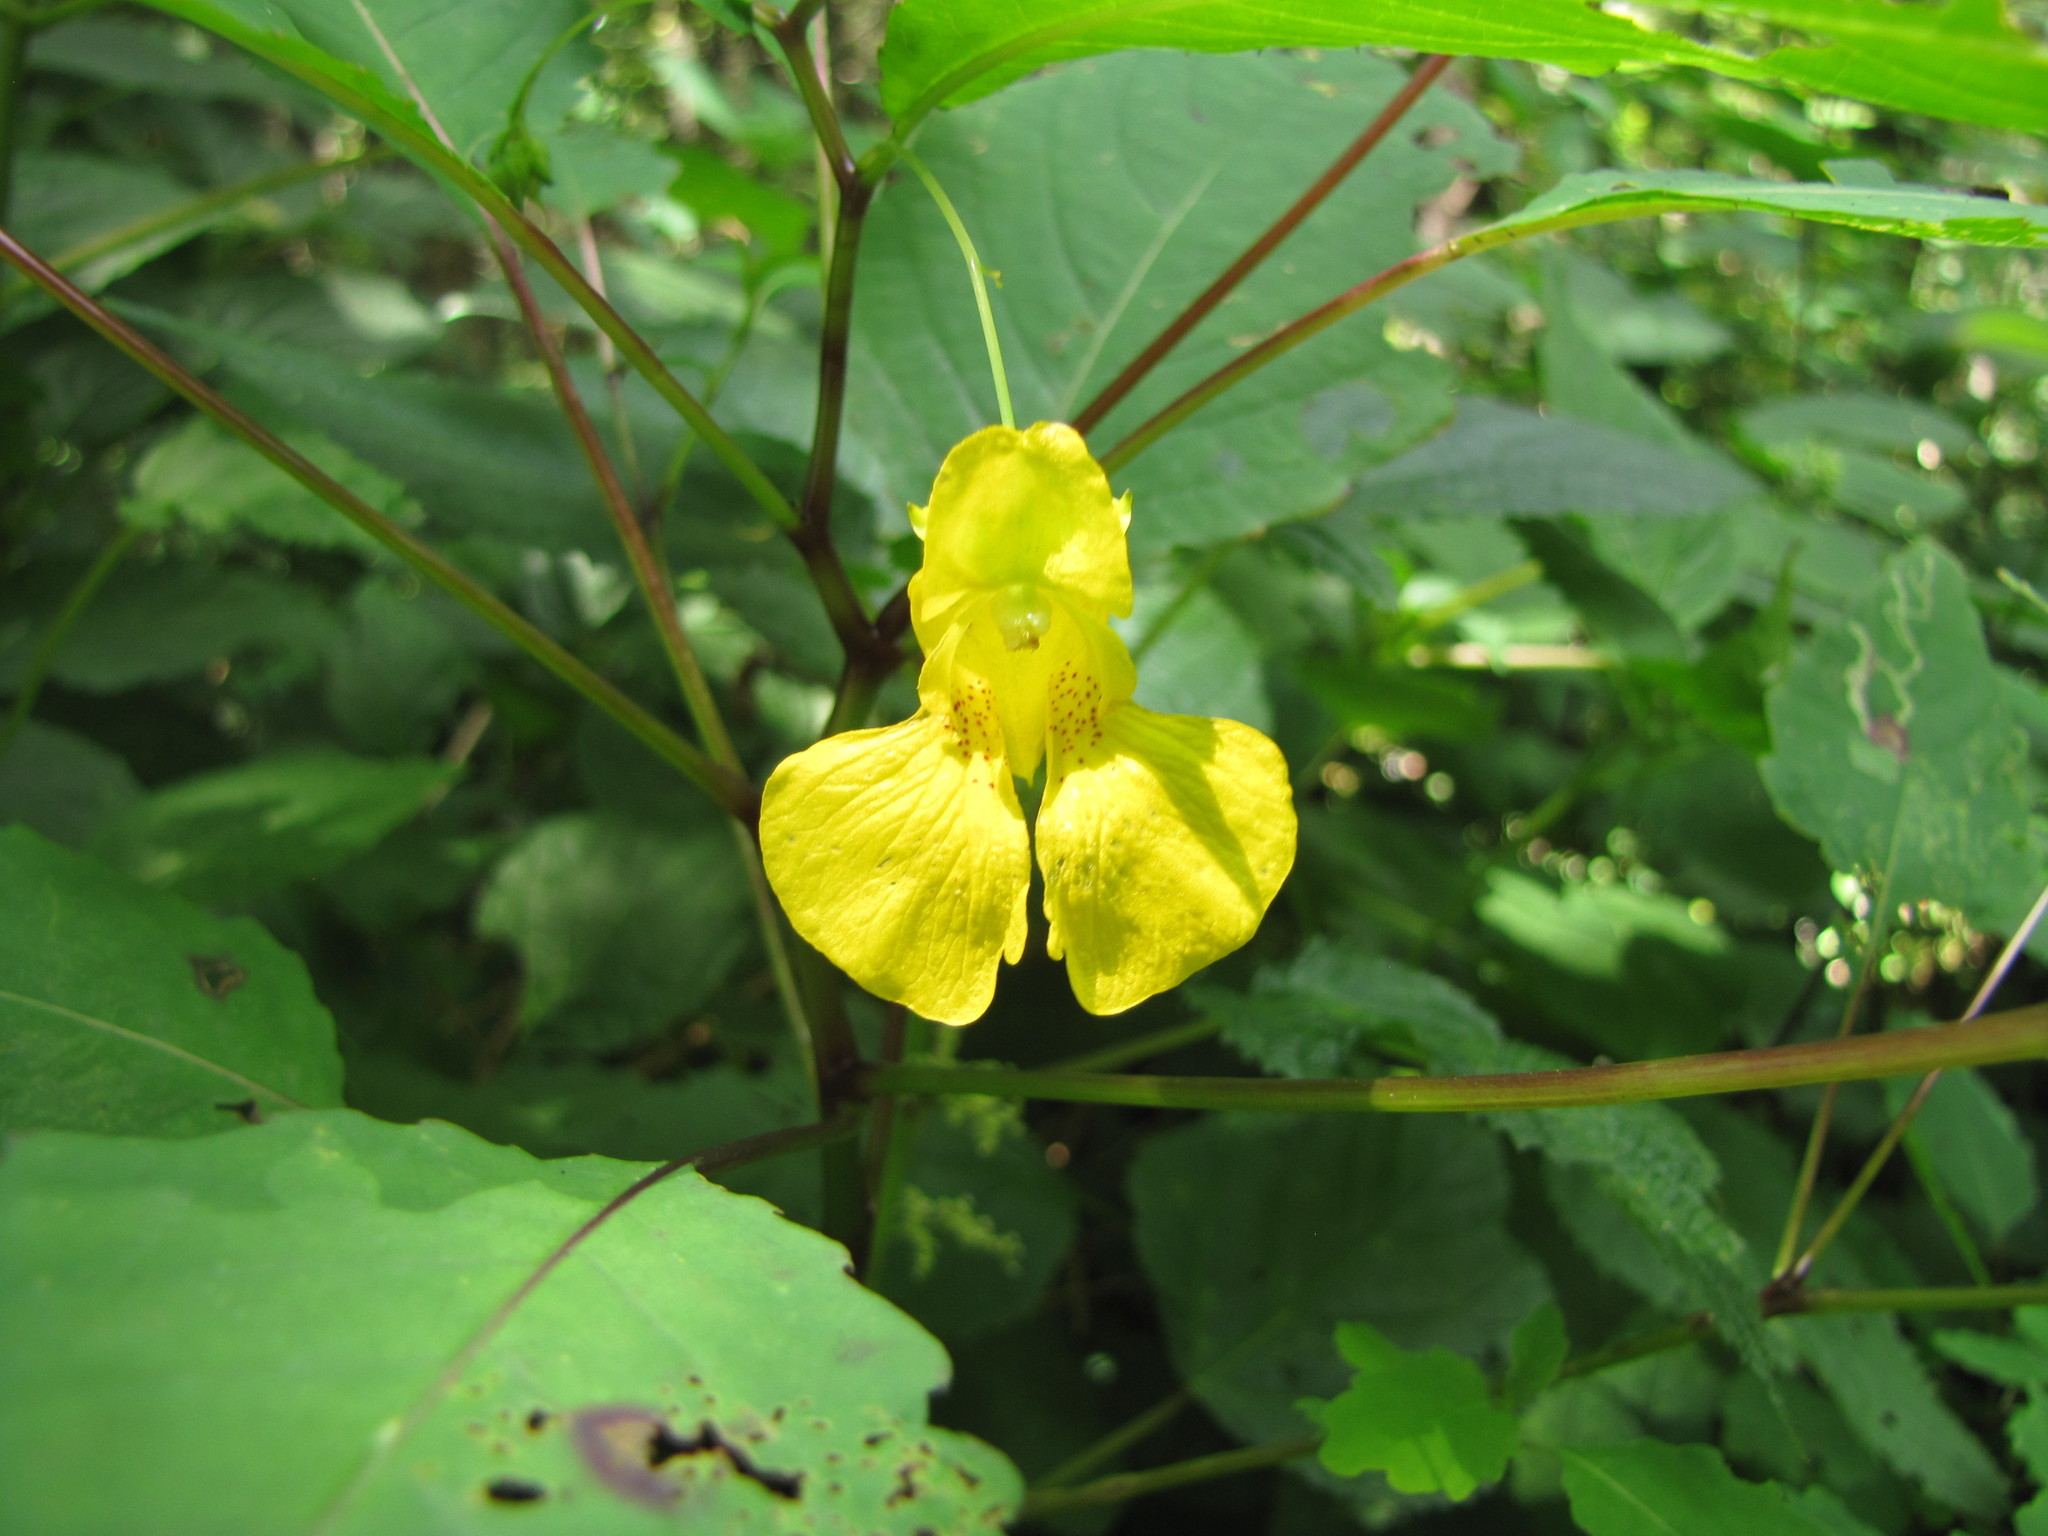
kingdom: Plantae
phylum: Tracheophyta
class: Magnoliopsida
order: Ericales
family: Balsaminaceae
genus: Impatiens
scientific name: Impatiens pallida
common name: Pale snapweed
